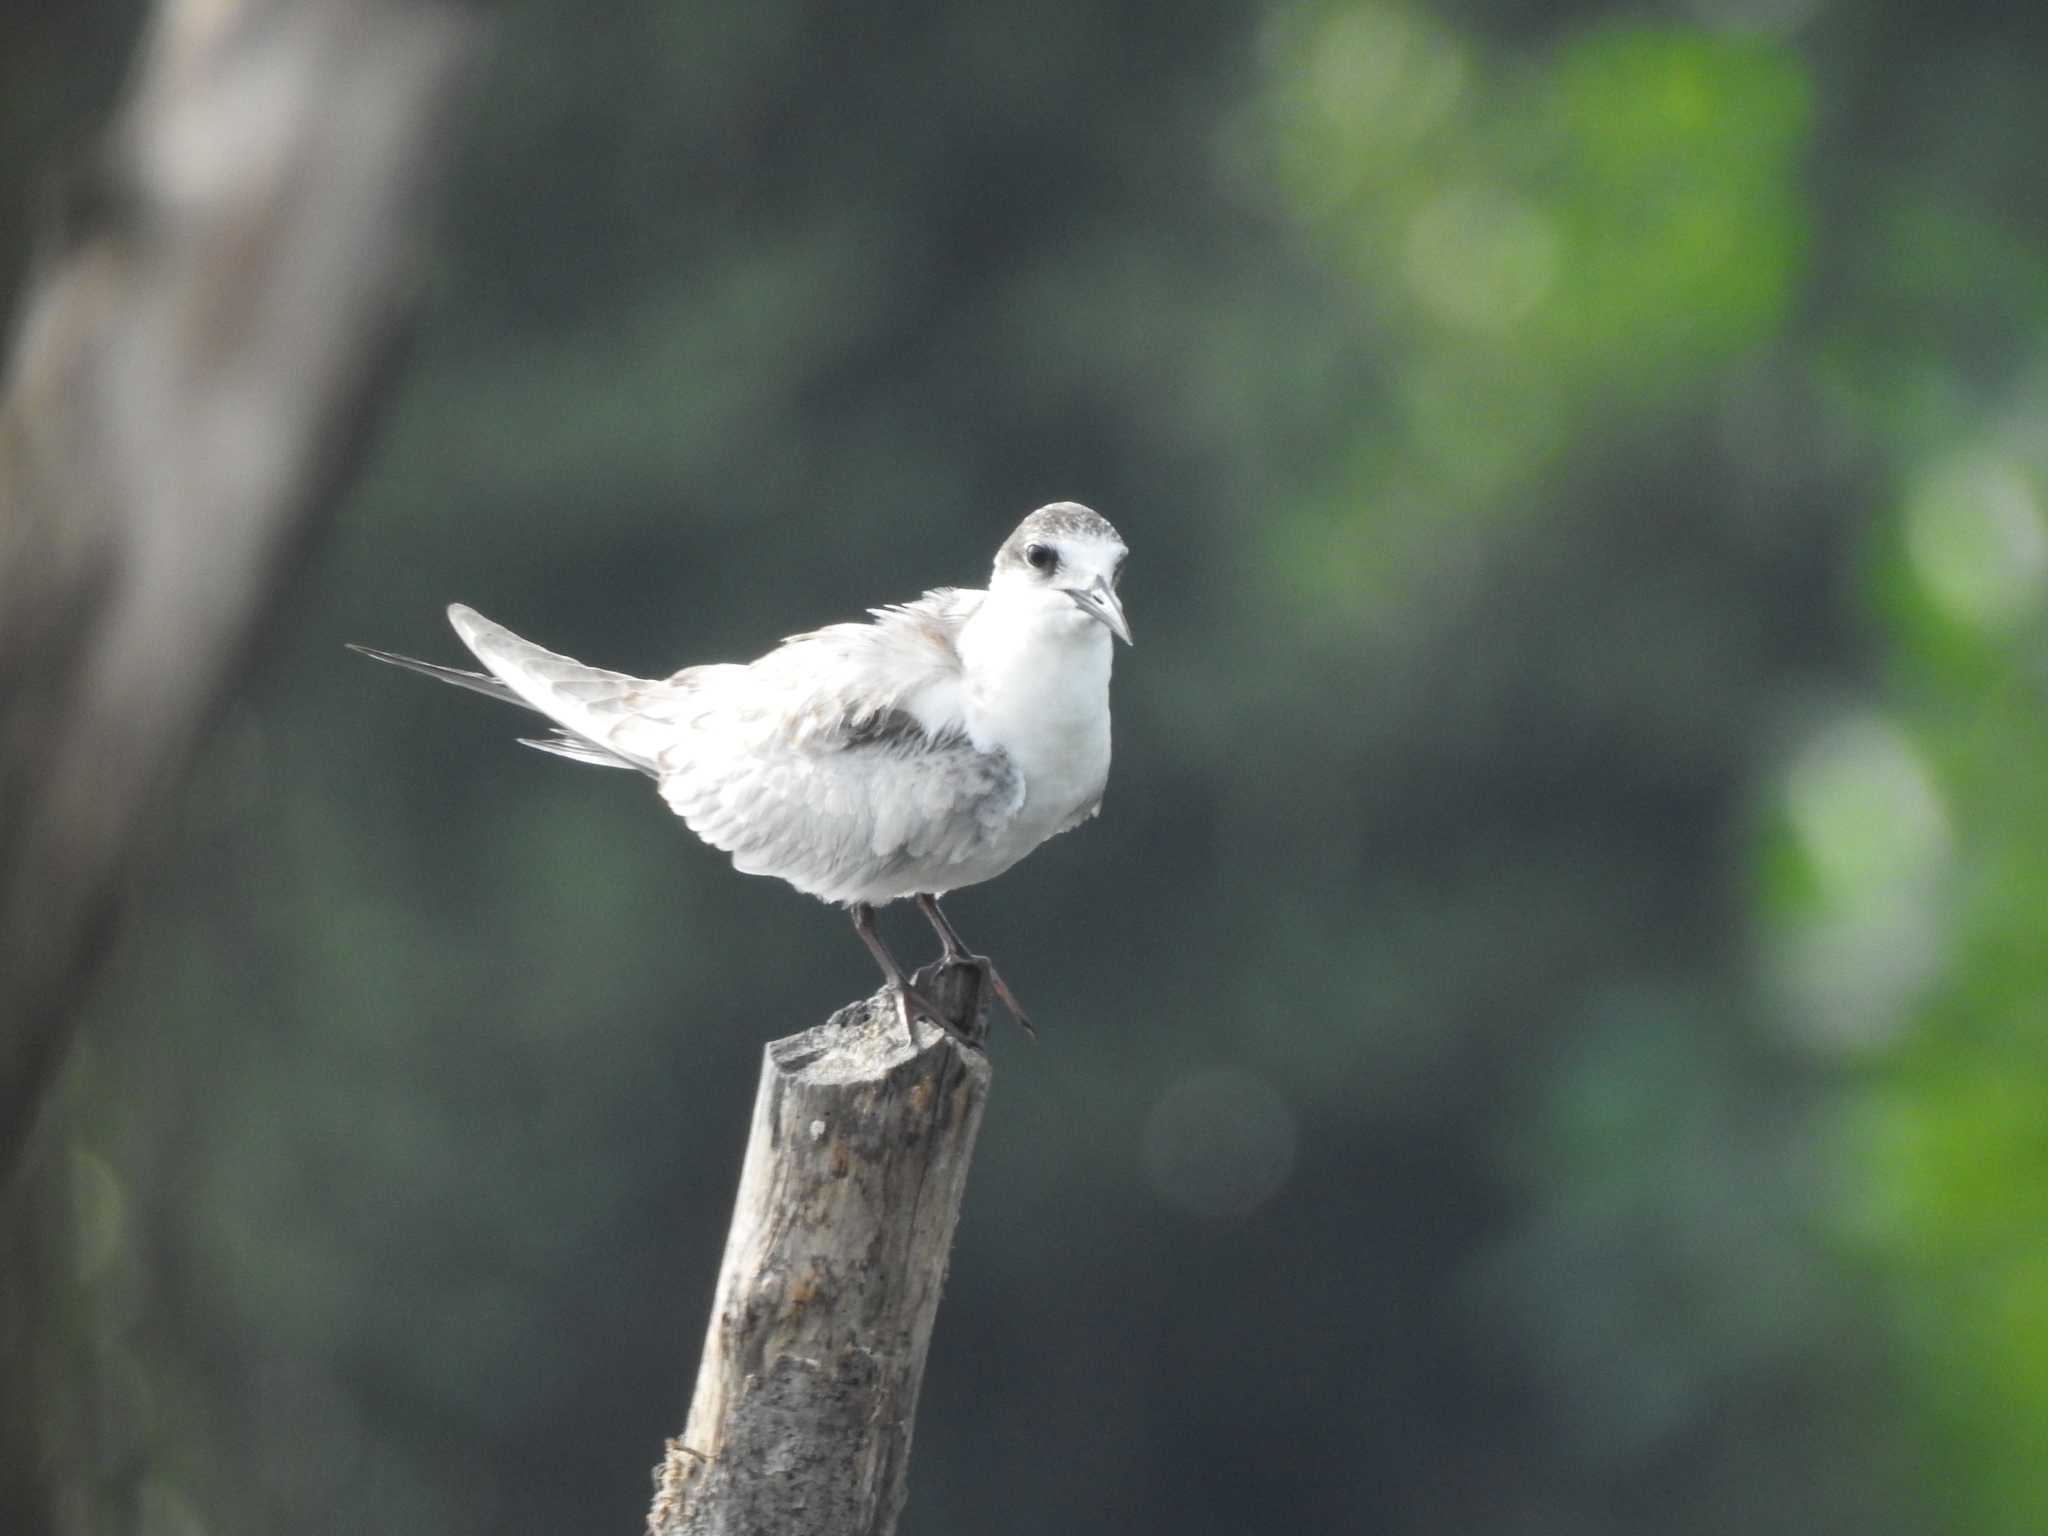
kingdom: Animalia
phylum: Chordata
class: Aves
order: Charadriiformes
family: Laridae
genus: Chlidonias
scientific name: Chlidonias hybrida
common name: Whiskered tern
